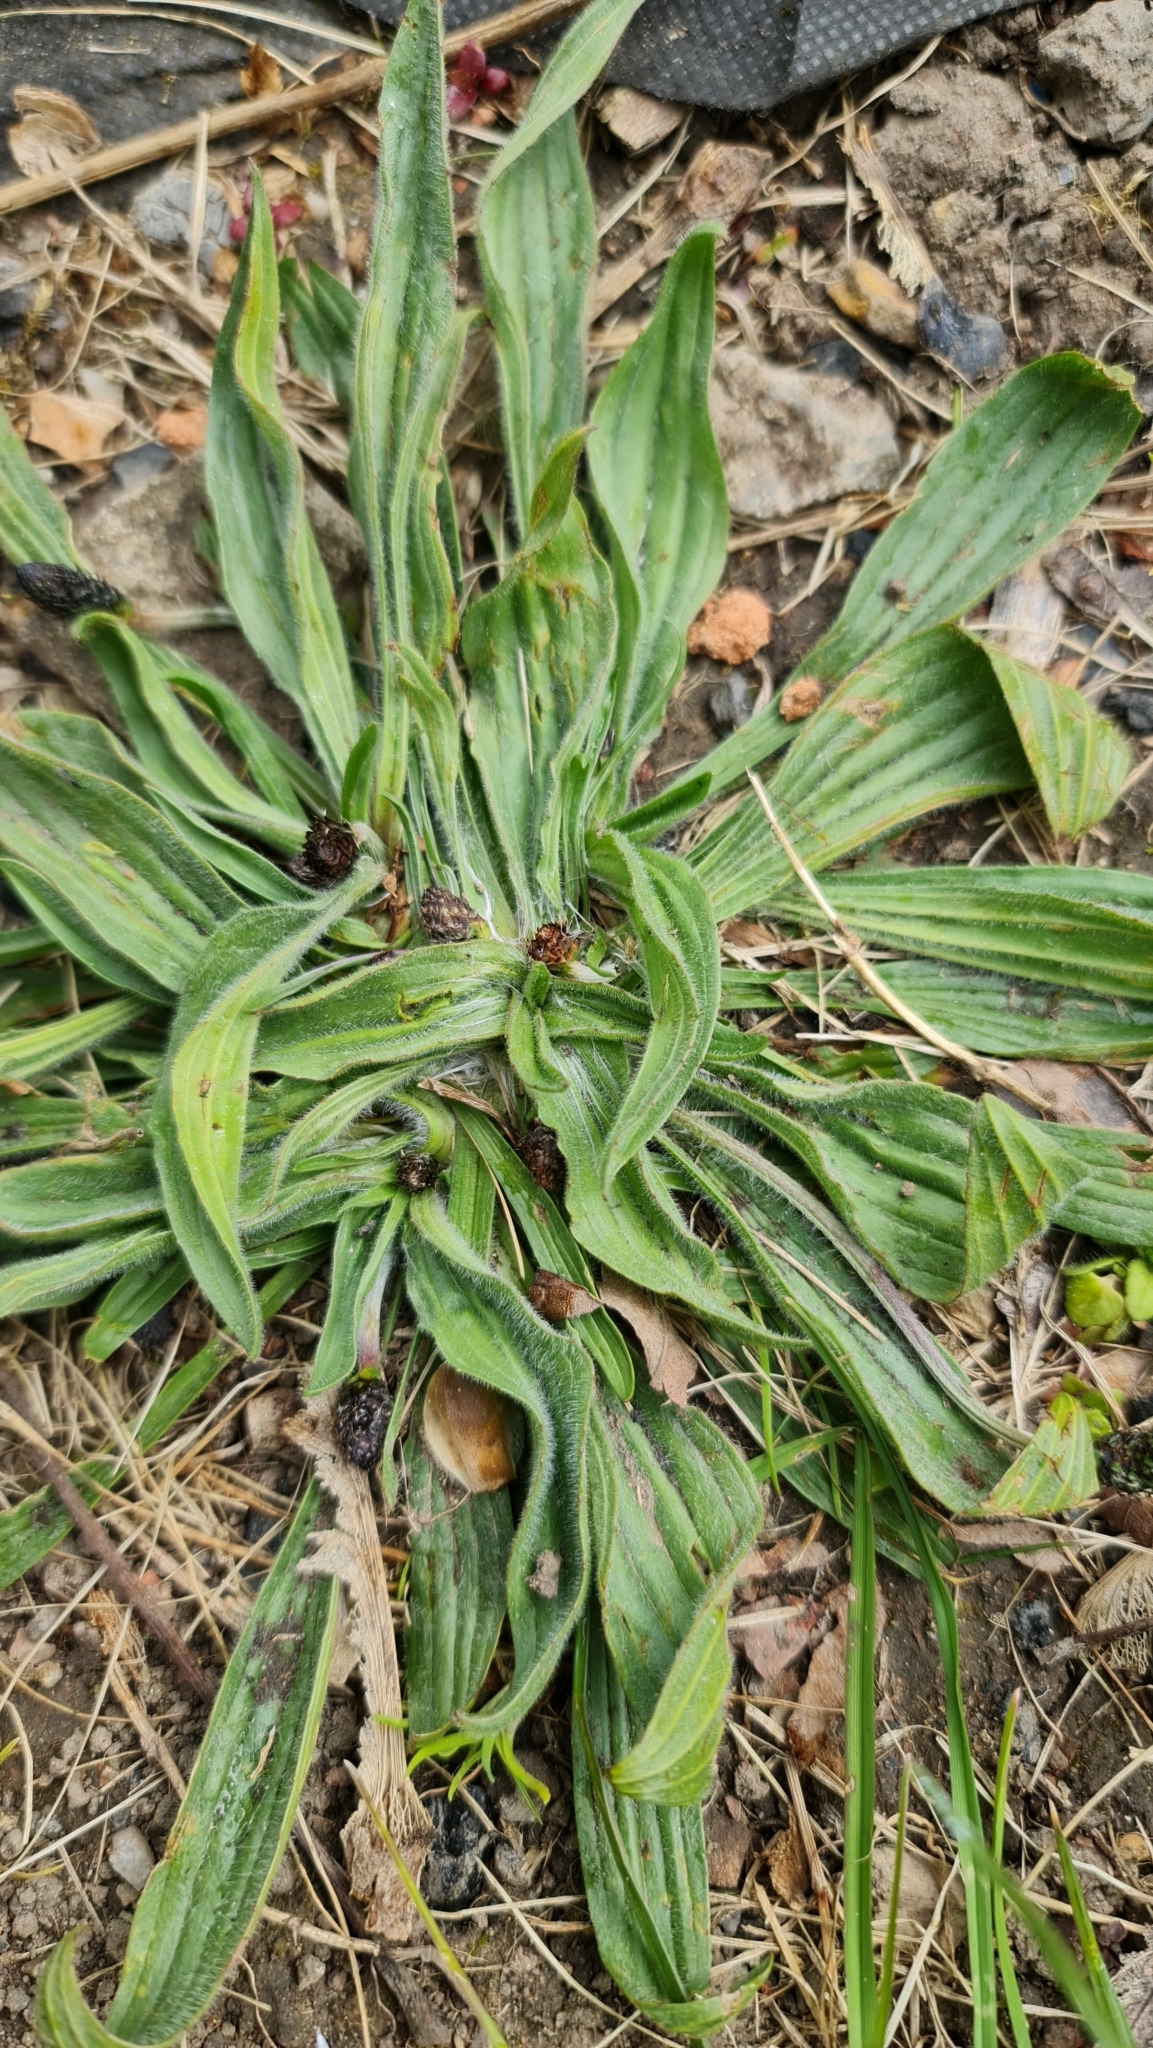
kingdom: Plantae
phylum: Tracheophyta
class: Magnoliopsida
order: Lamiales
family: Plantaginaceae
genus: Plantago
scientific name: Plantago lanceolata
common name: Ribwort plantain
